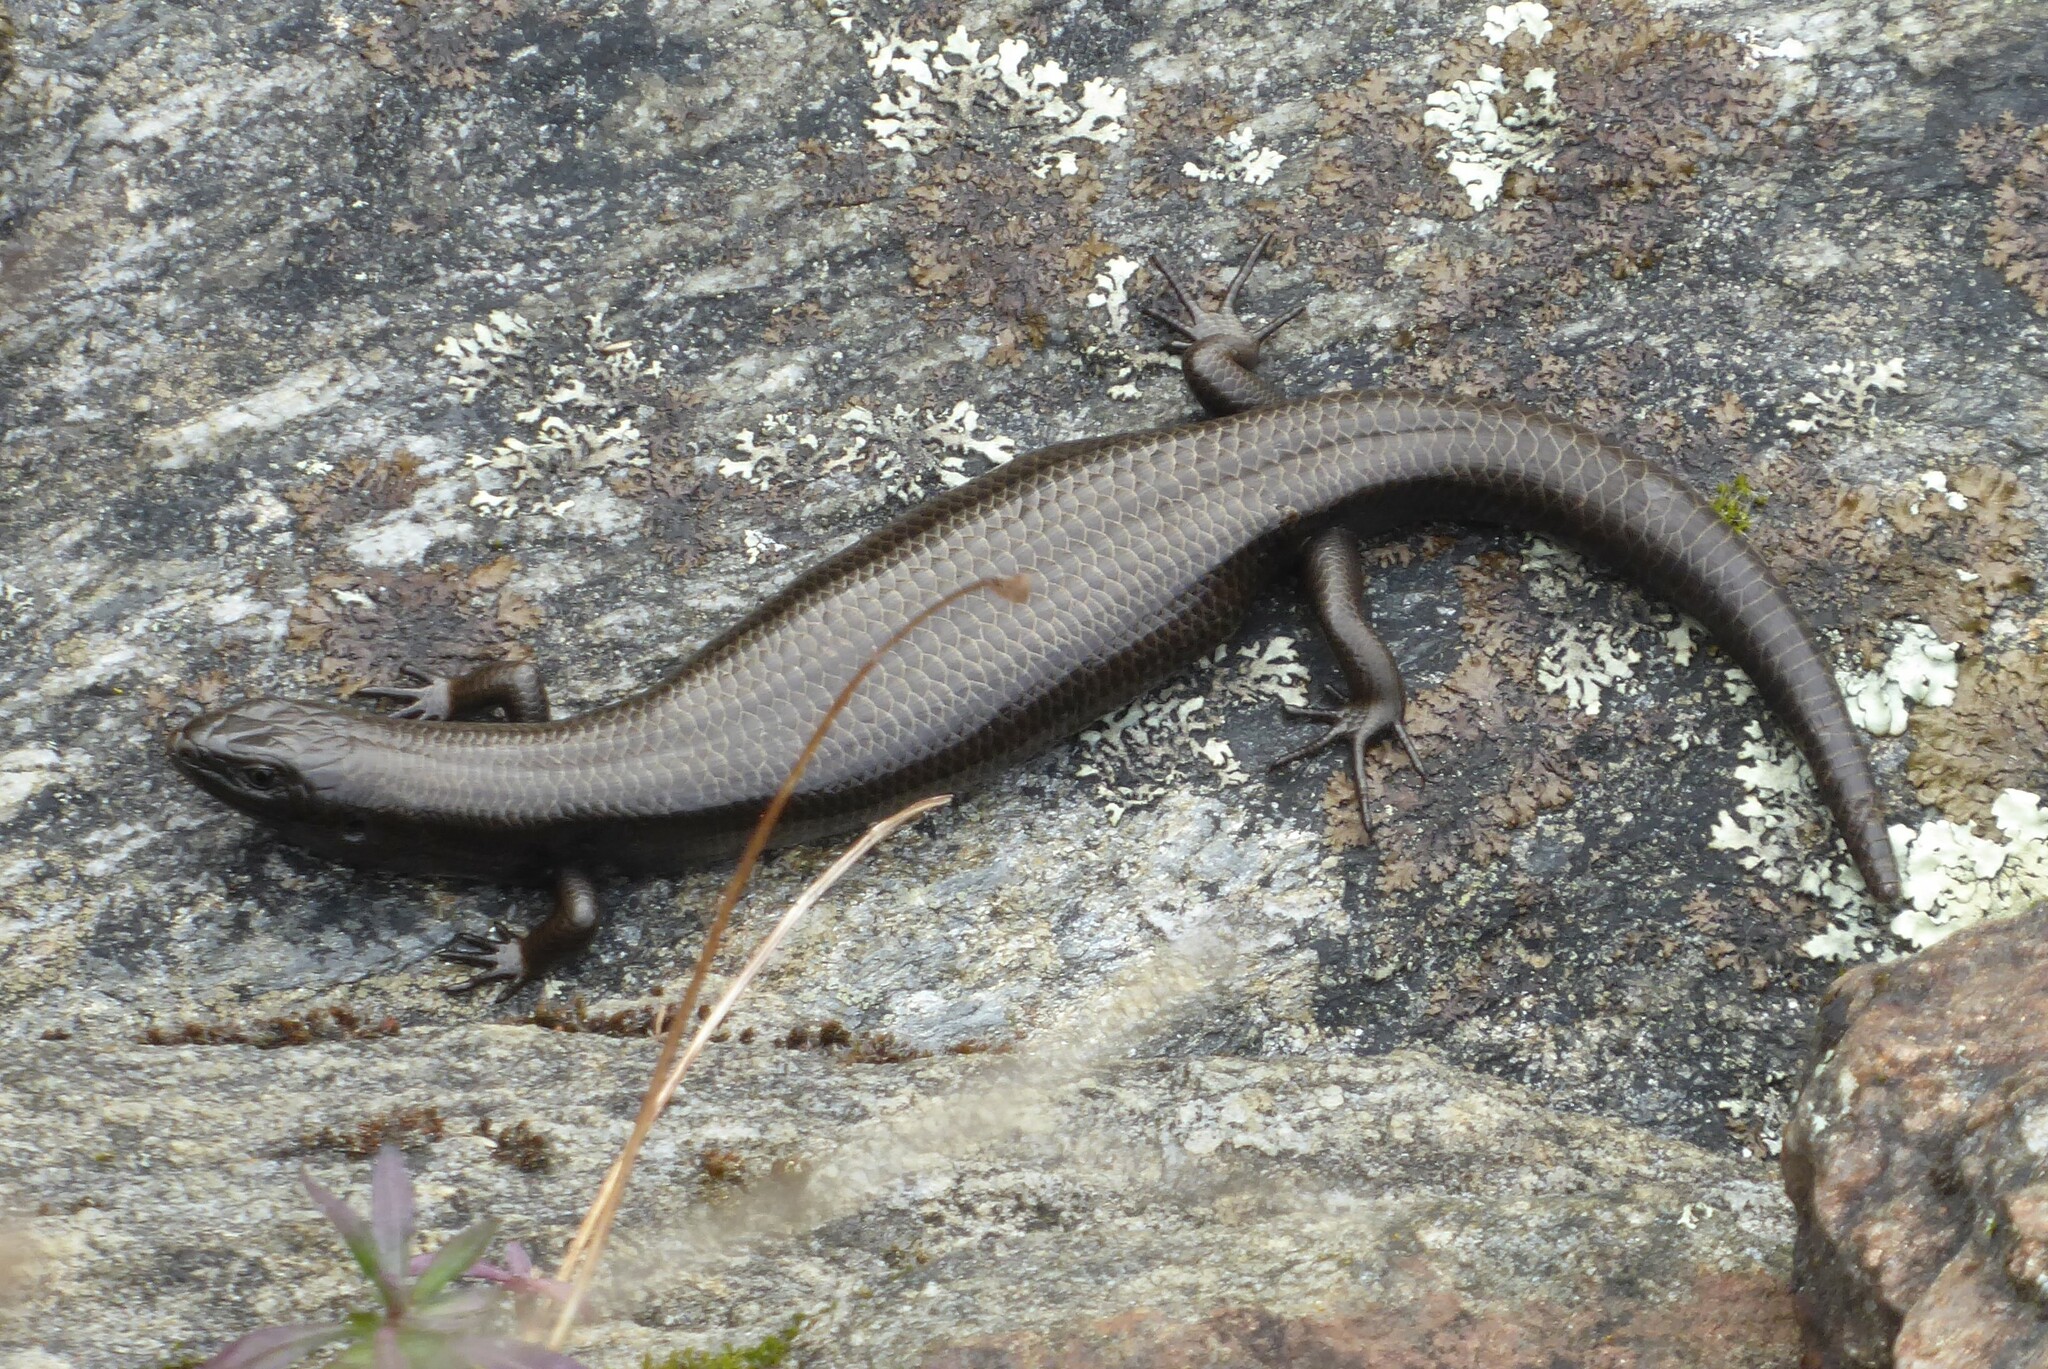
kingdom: Animalia
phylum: Chordata
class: Squamata
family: Scincidae
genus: Oligosoma
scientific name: Oligosoma polychroma
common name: Common new zealand skink
